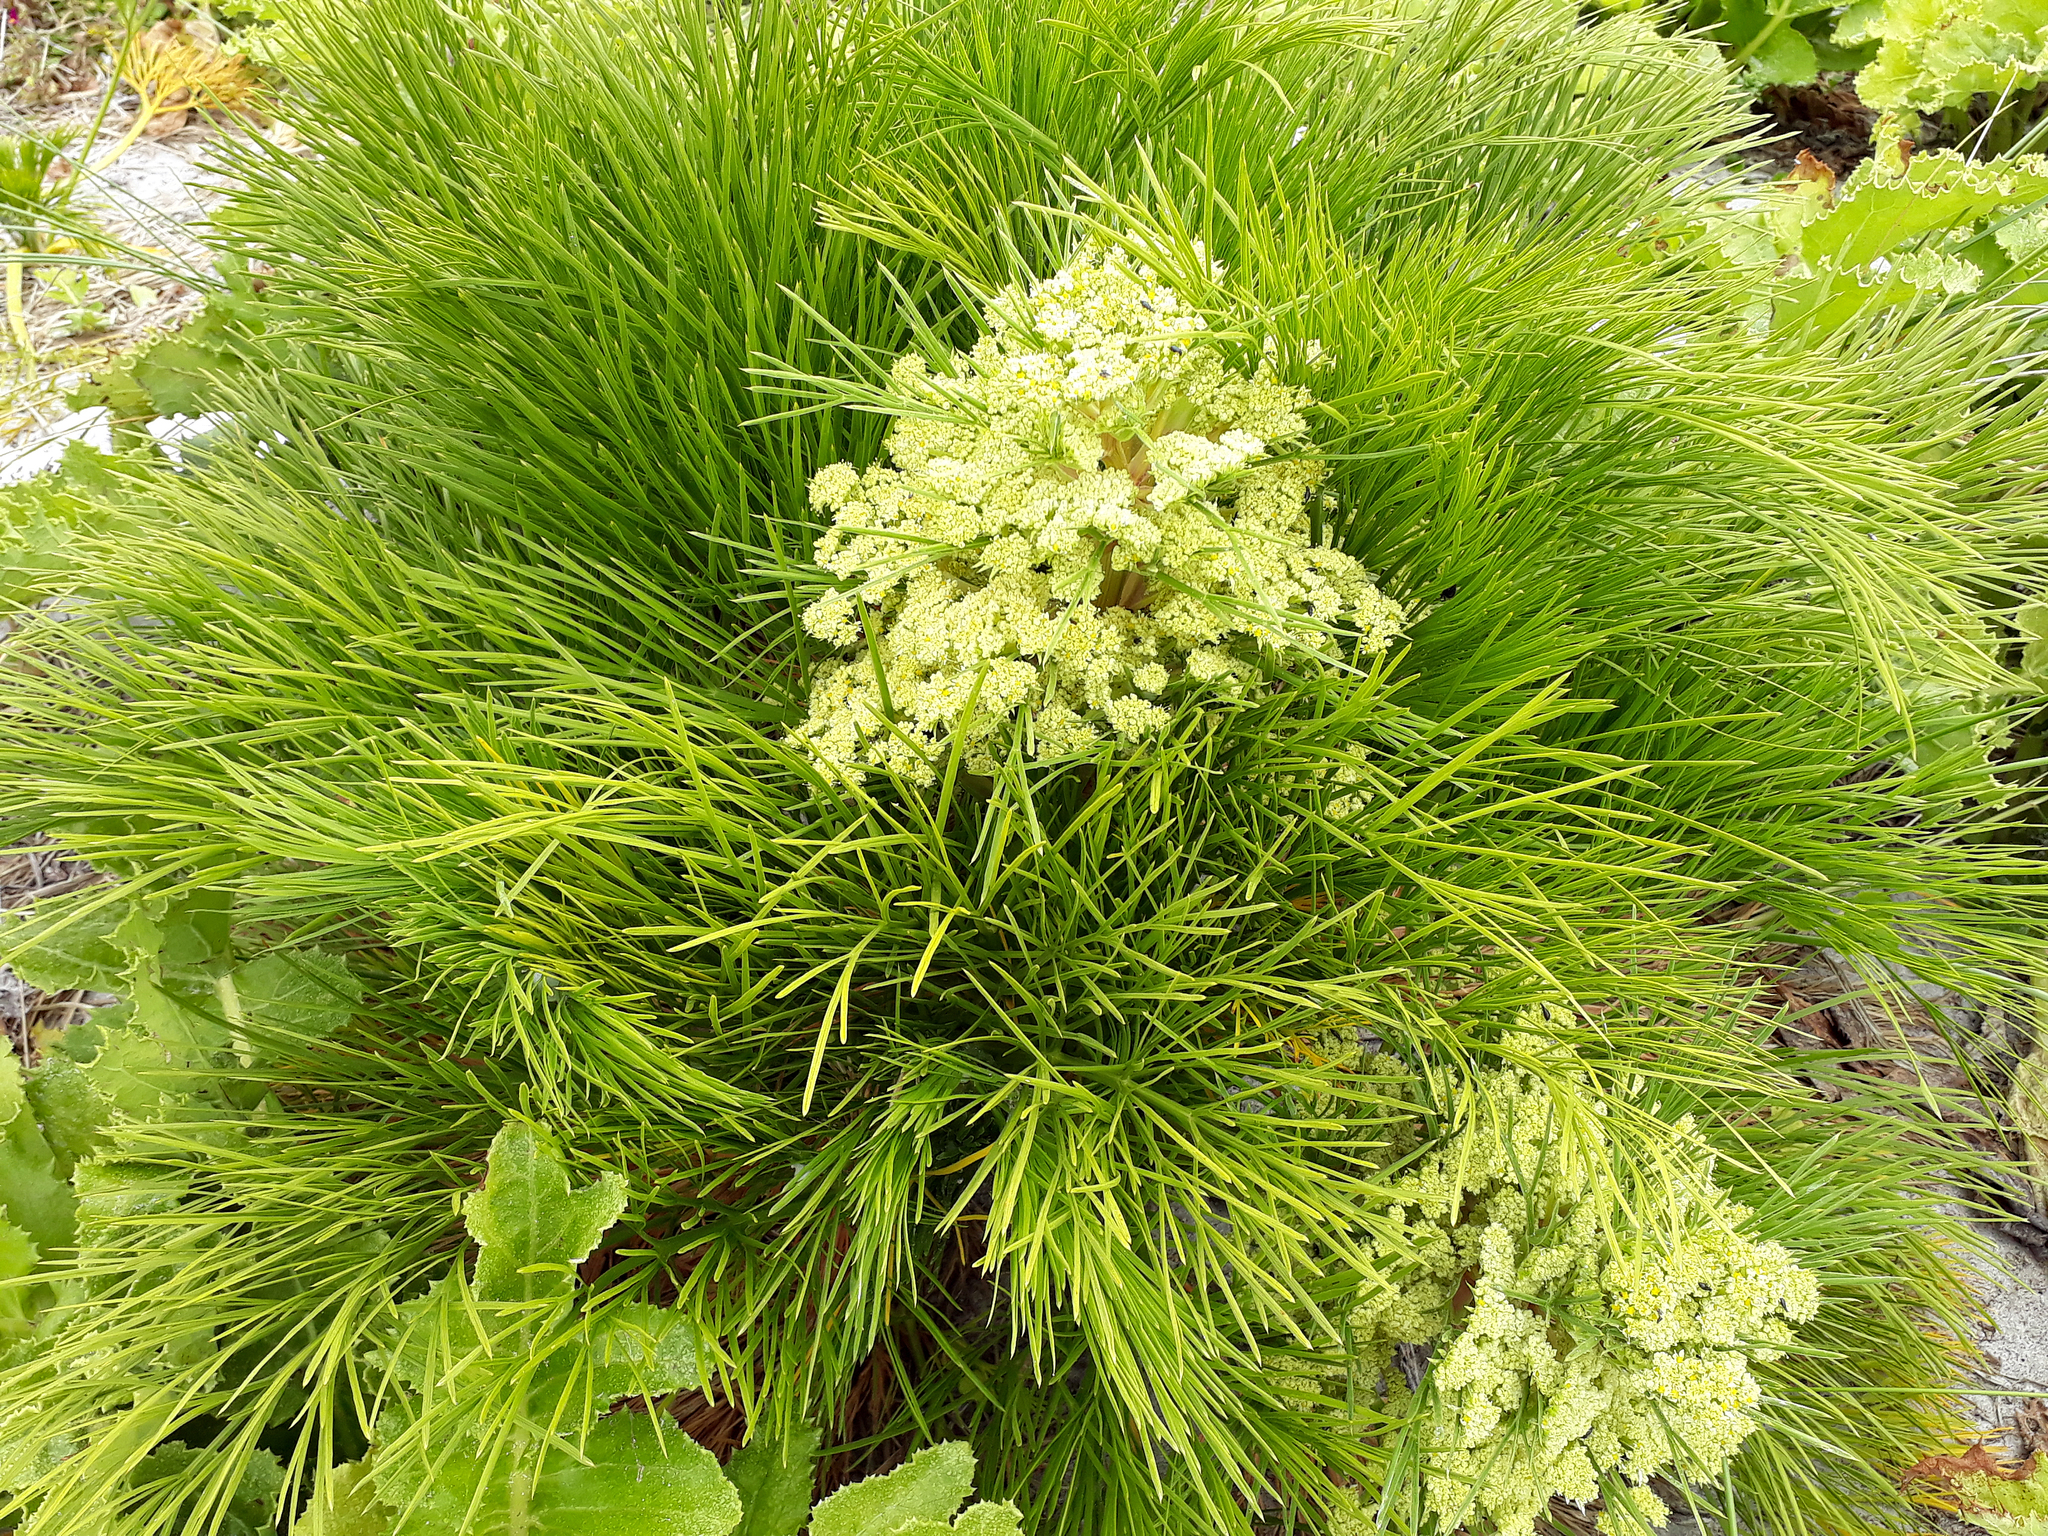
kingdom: Plantae
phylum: Tracheophyta
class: Magnoliopsida
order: Apiales
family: Apiaceae
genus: Aciphylla
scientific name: Aciphylla dieffenbachii
